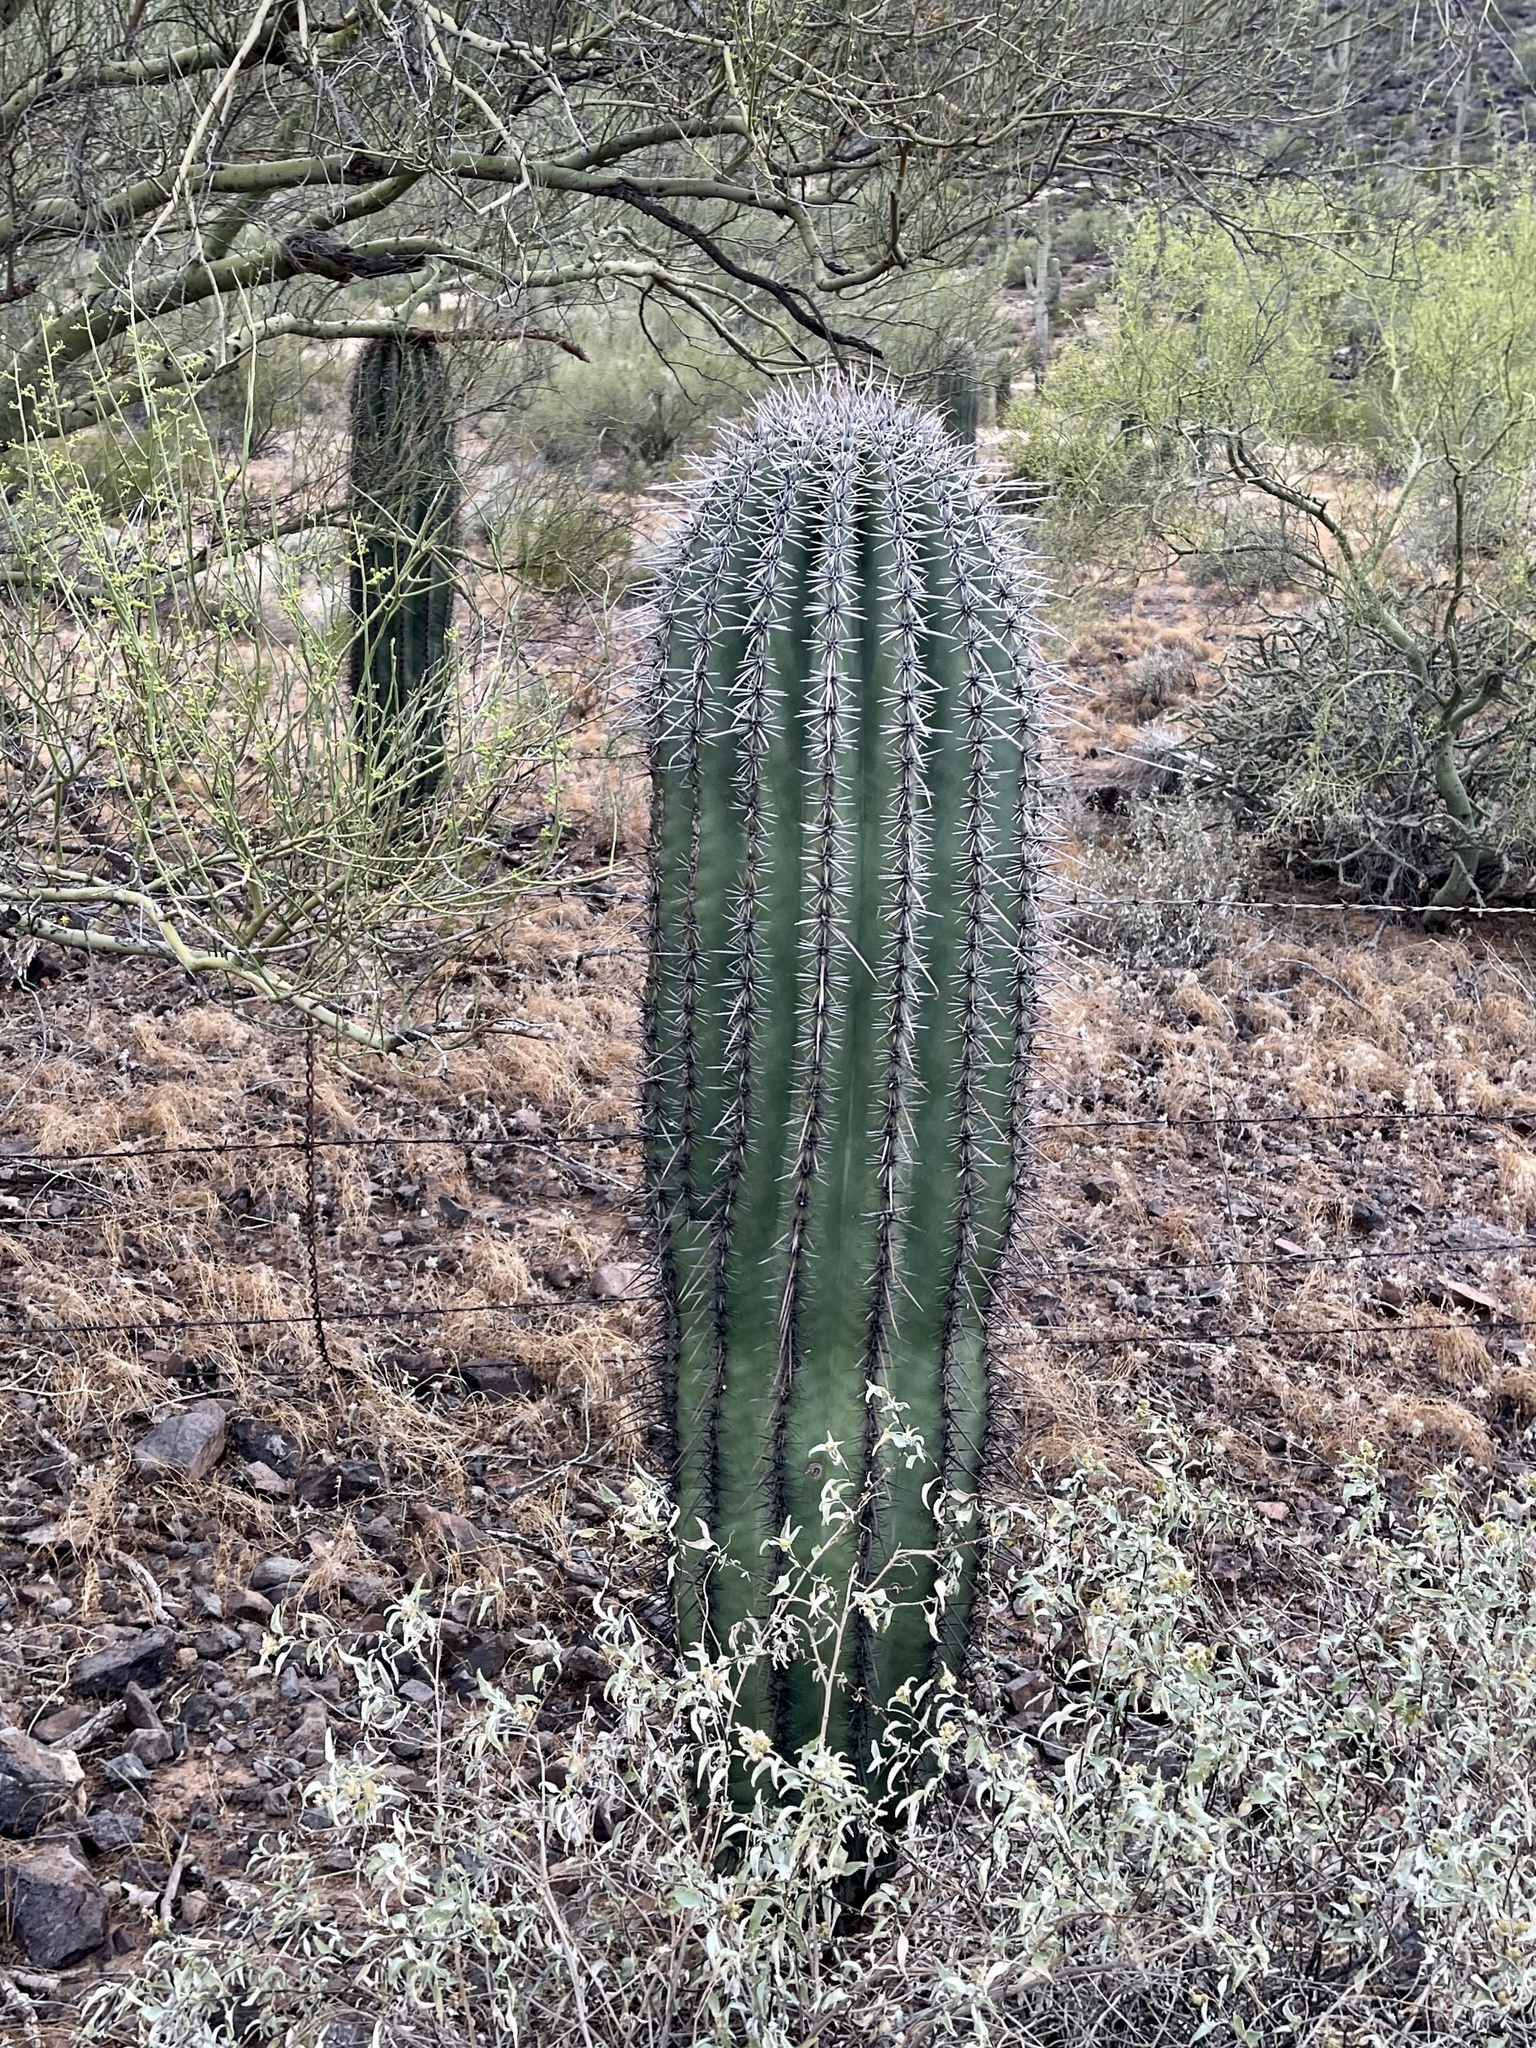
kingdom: Plantae
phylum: Tracheophyta
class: Magnoliopsida
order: Caryophyllales
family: Cactaceae
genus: Carnegiea
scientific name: Carnegiea gigantea
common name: Saguaro
